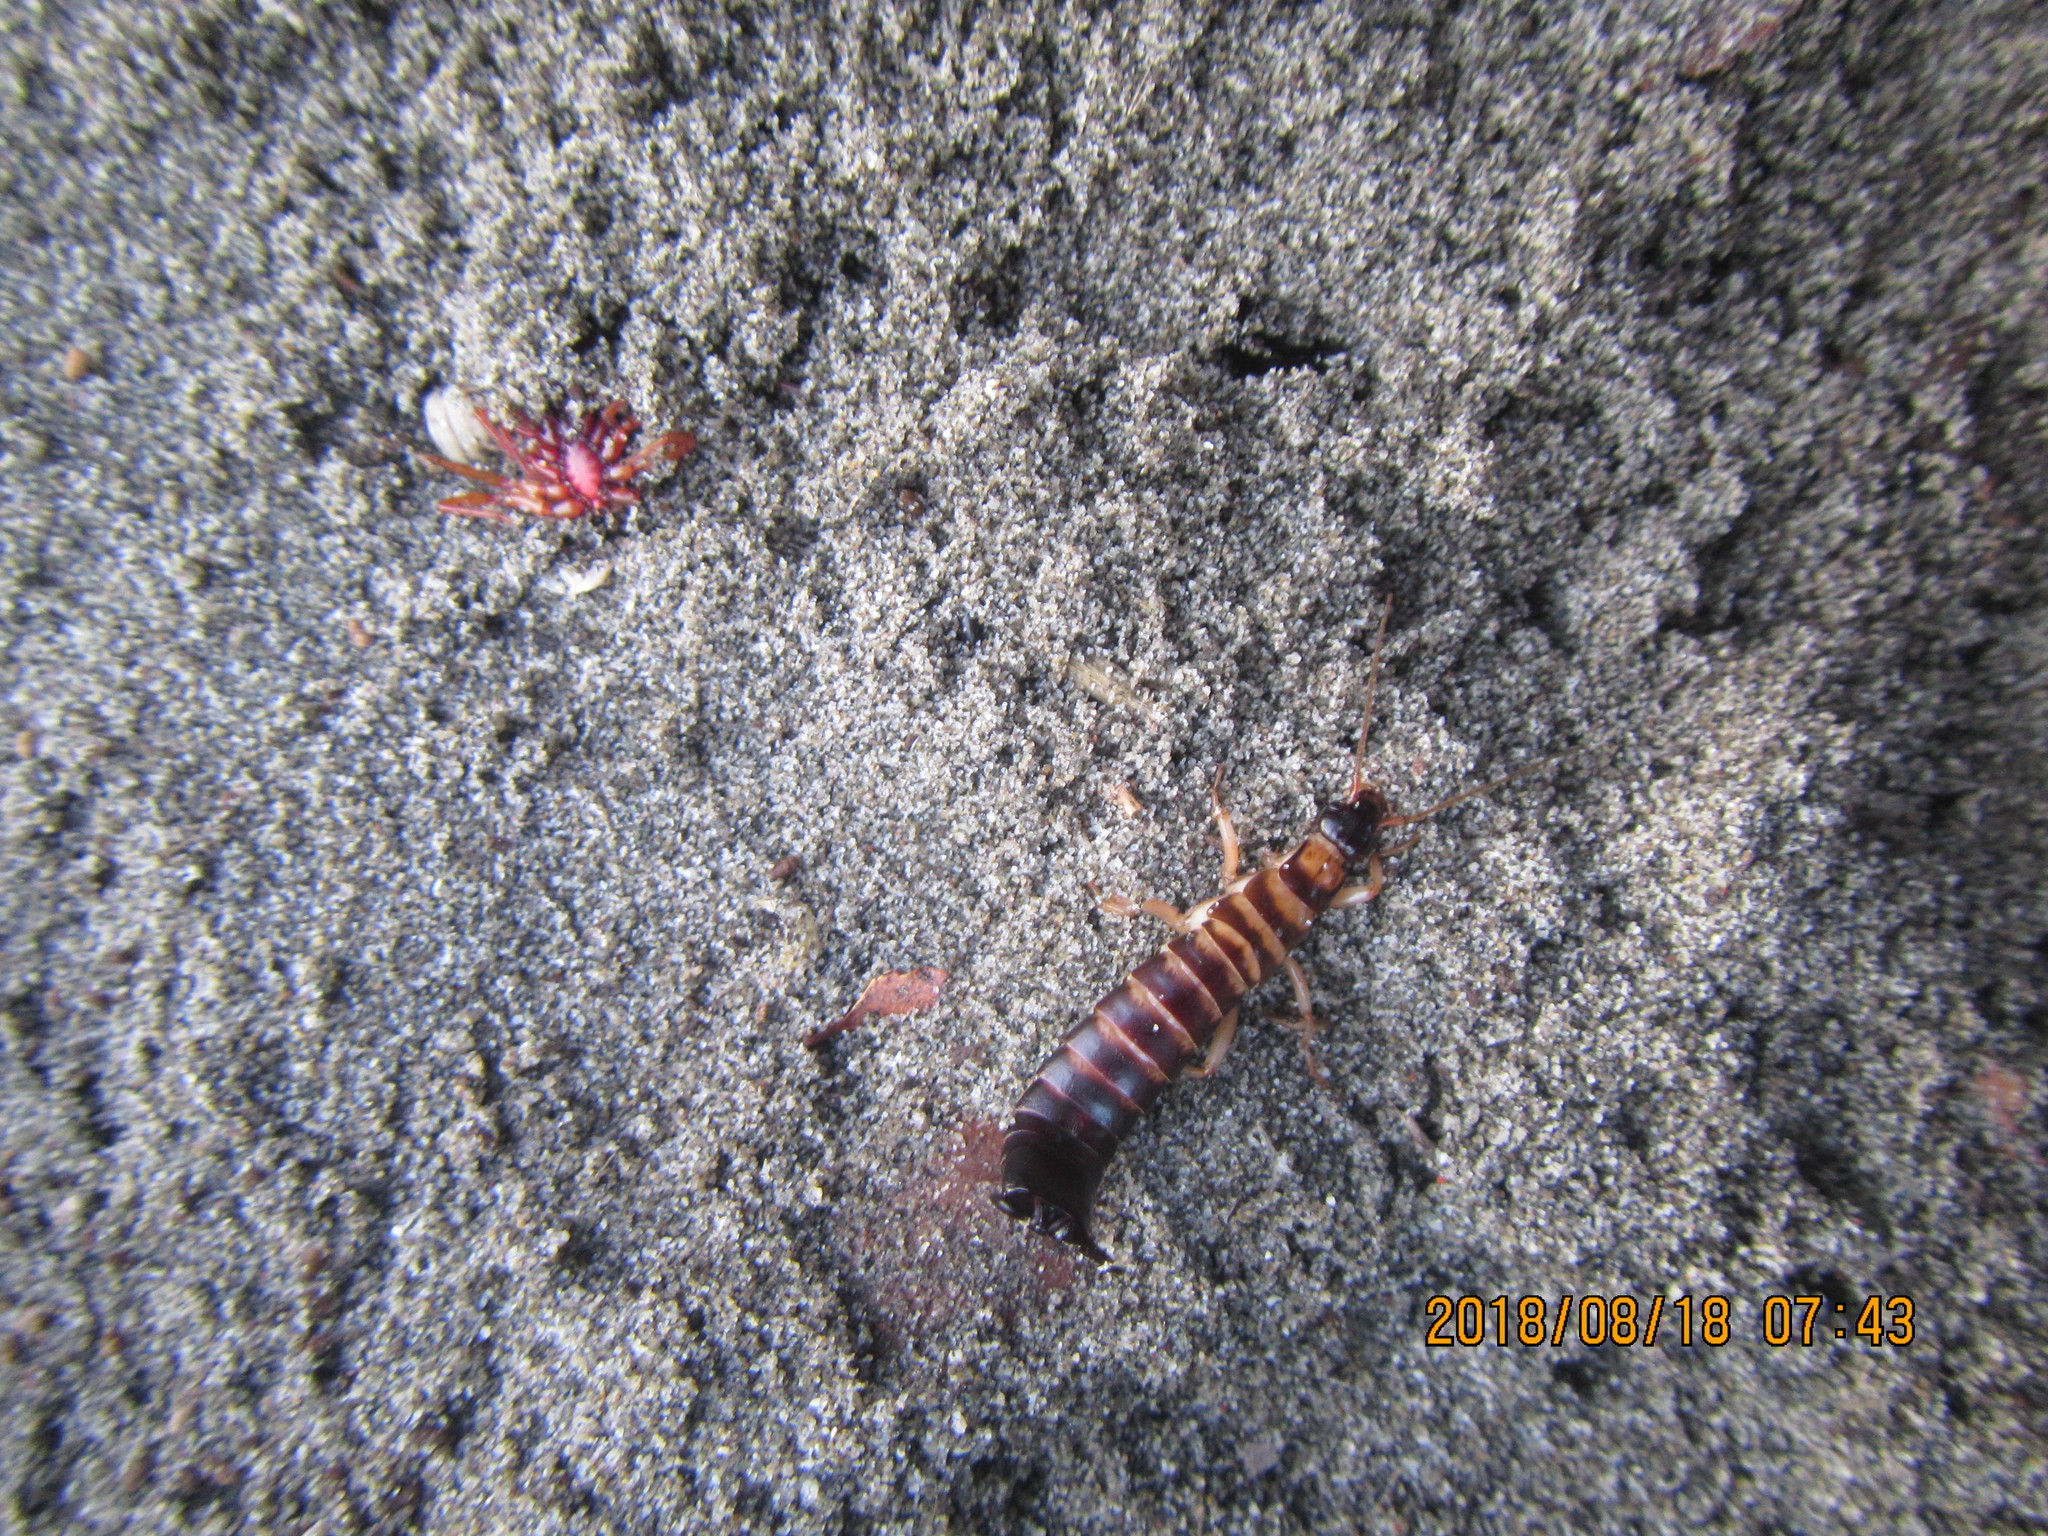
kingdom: Animalia
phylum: Arthropoda
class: Insecta
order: Dermaptera
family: Anisolabididae
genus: Anisolabis
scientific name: Anisolabis littorea
